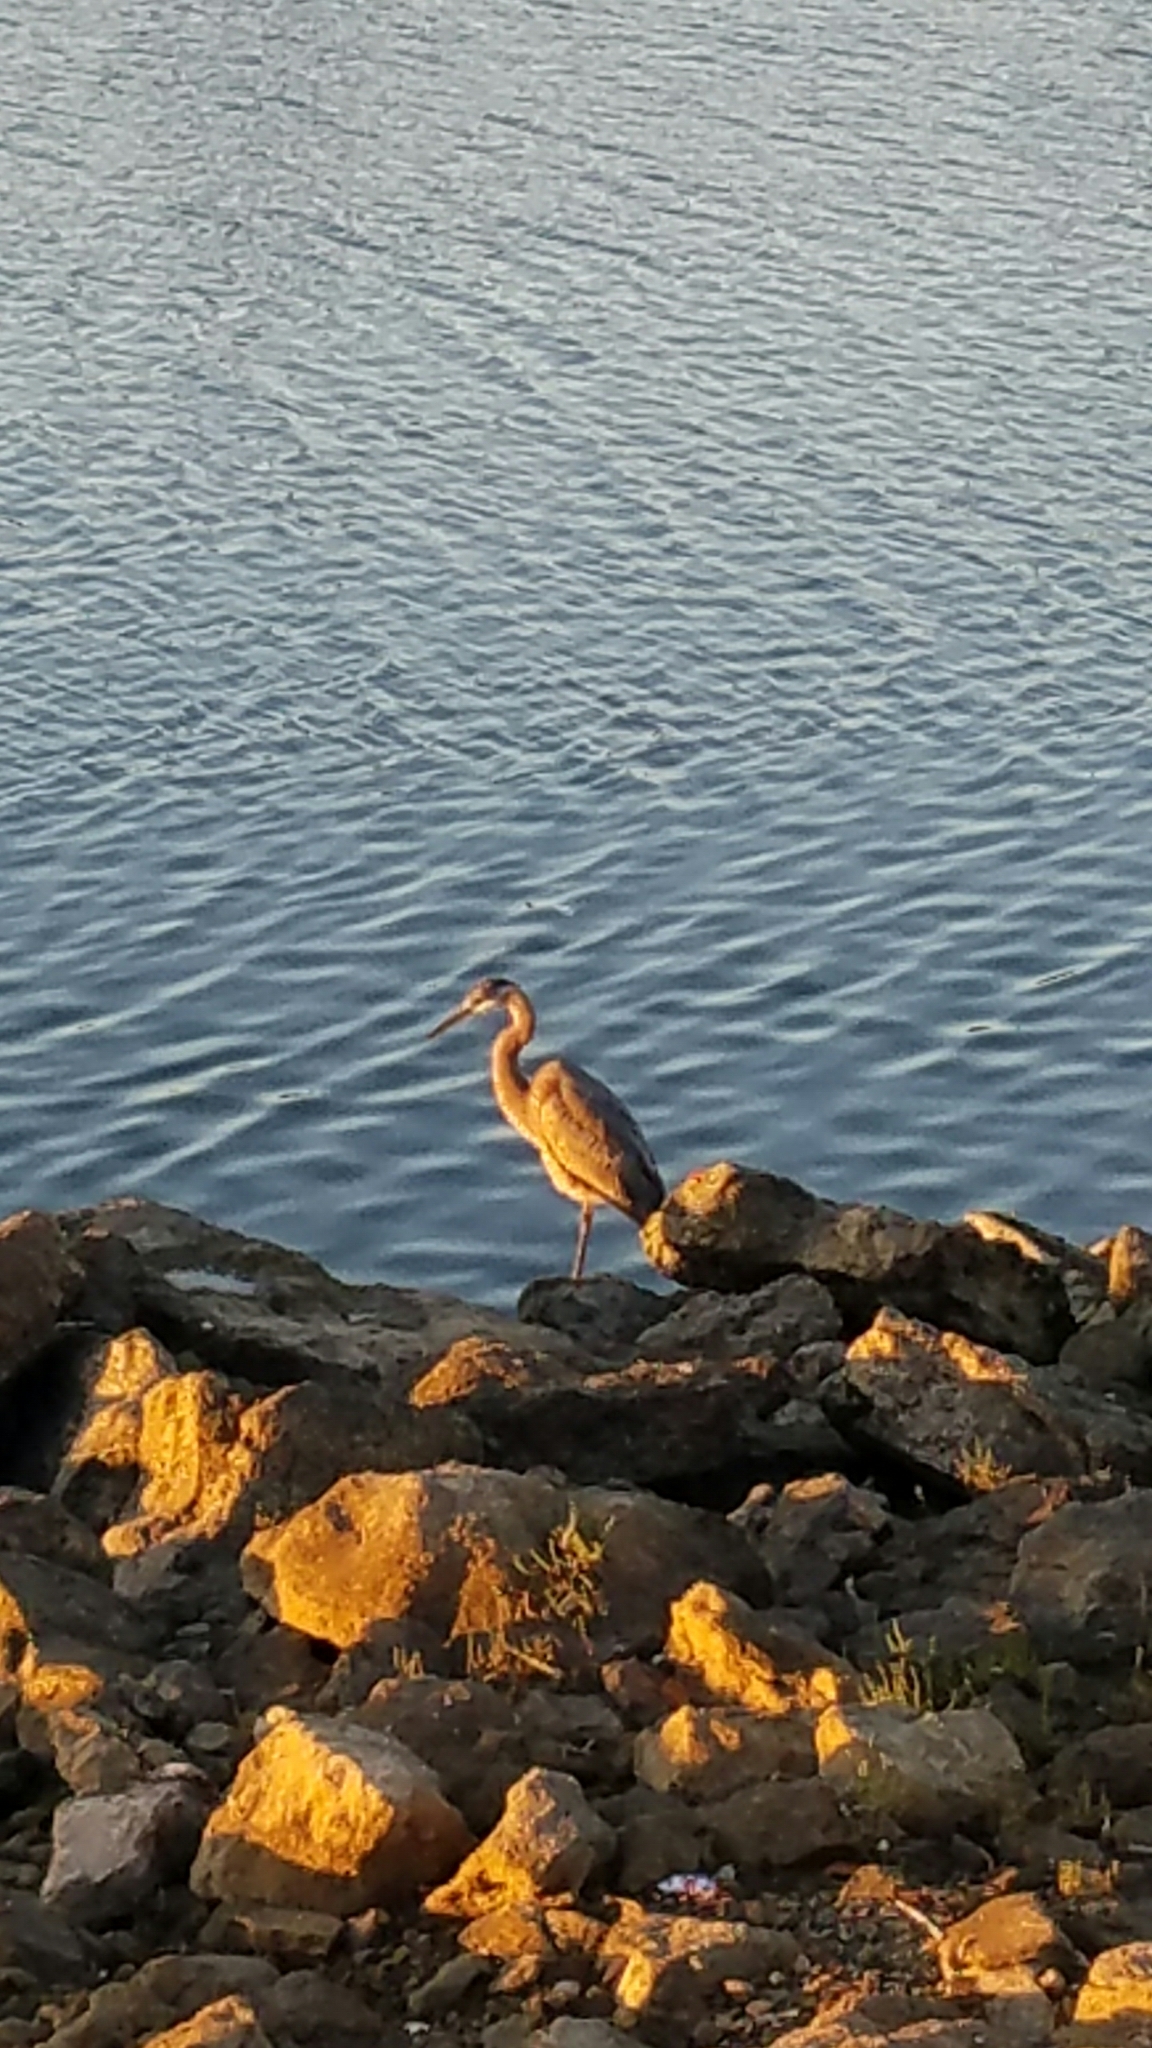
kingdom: Animalia
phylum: Chordata
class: Aves
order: Pelecaniformes
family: Ardeidae
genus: Ardea
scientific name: Ardea herodias
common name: Great blue heron
